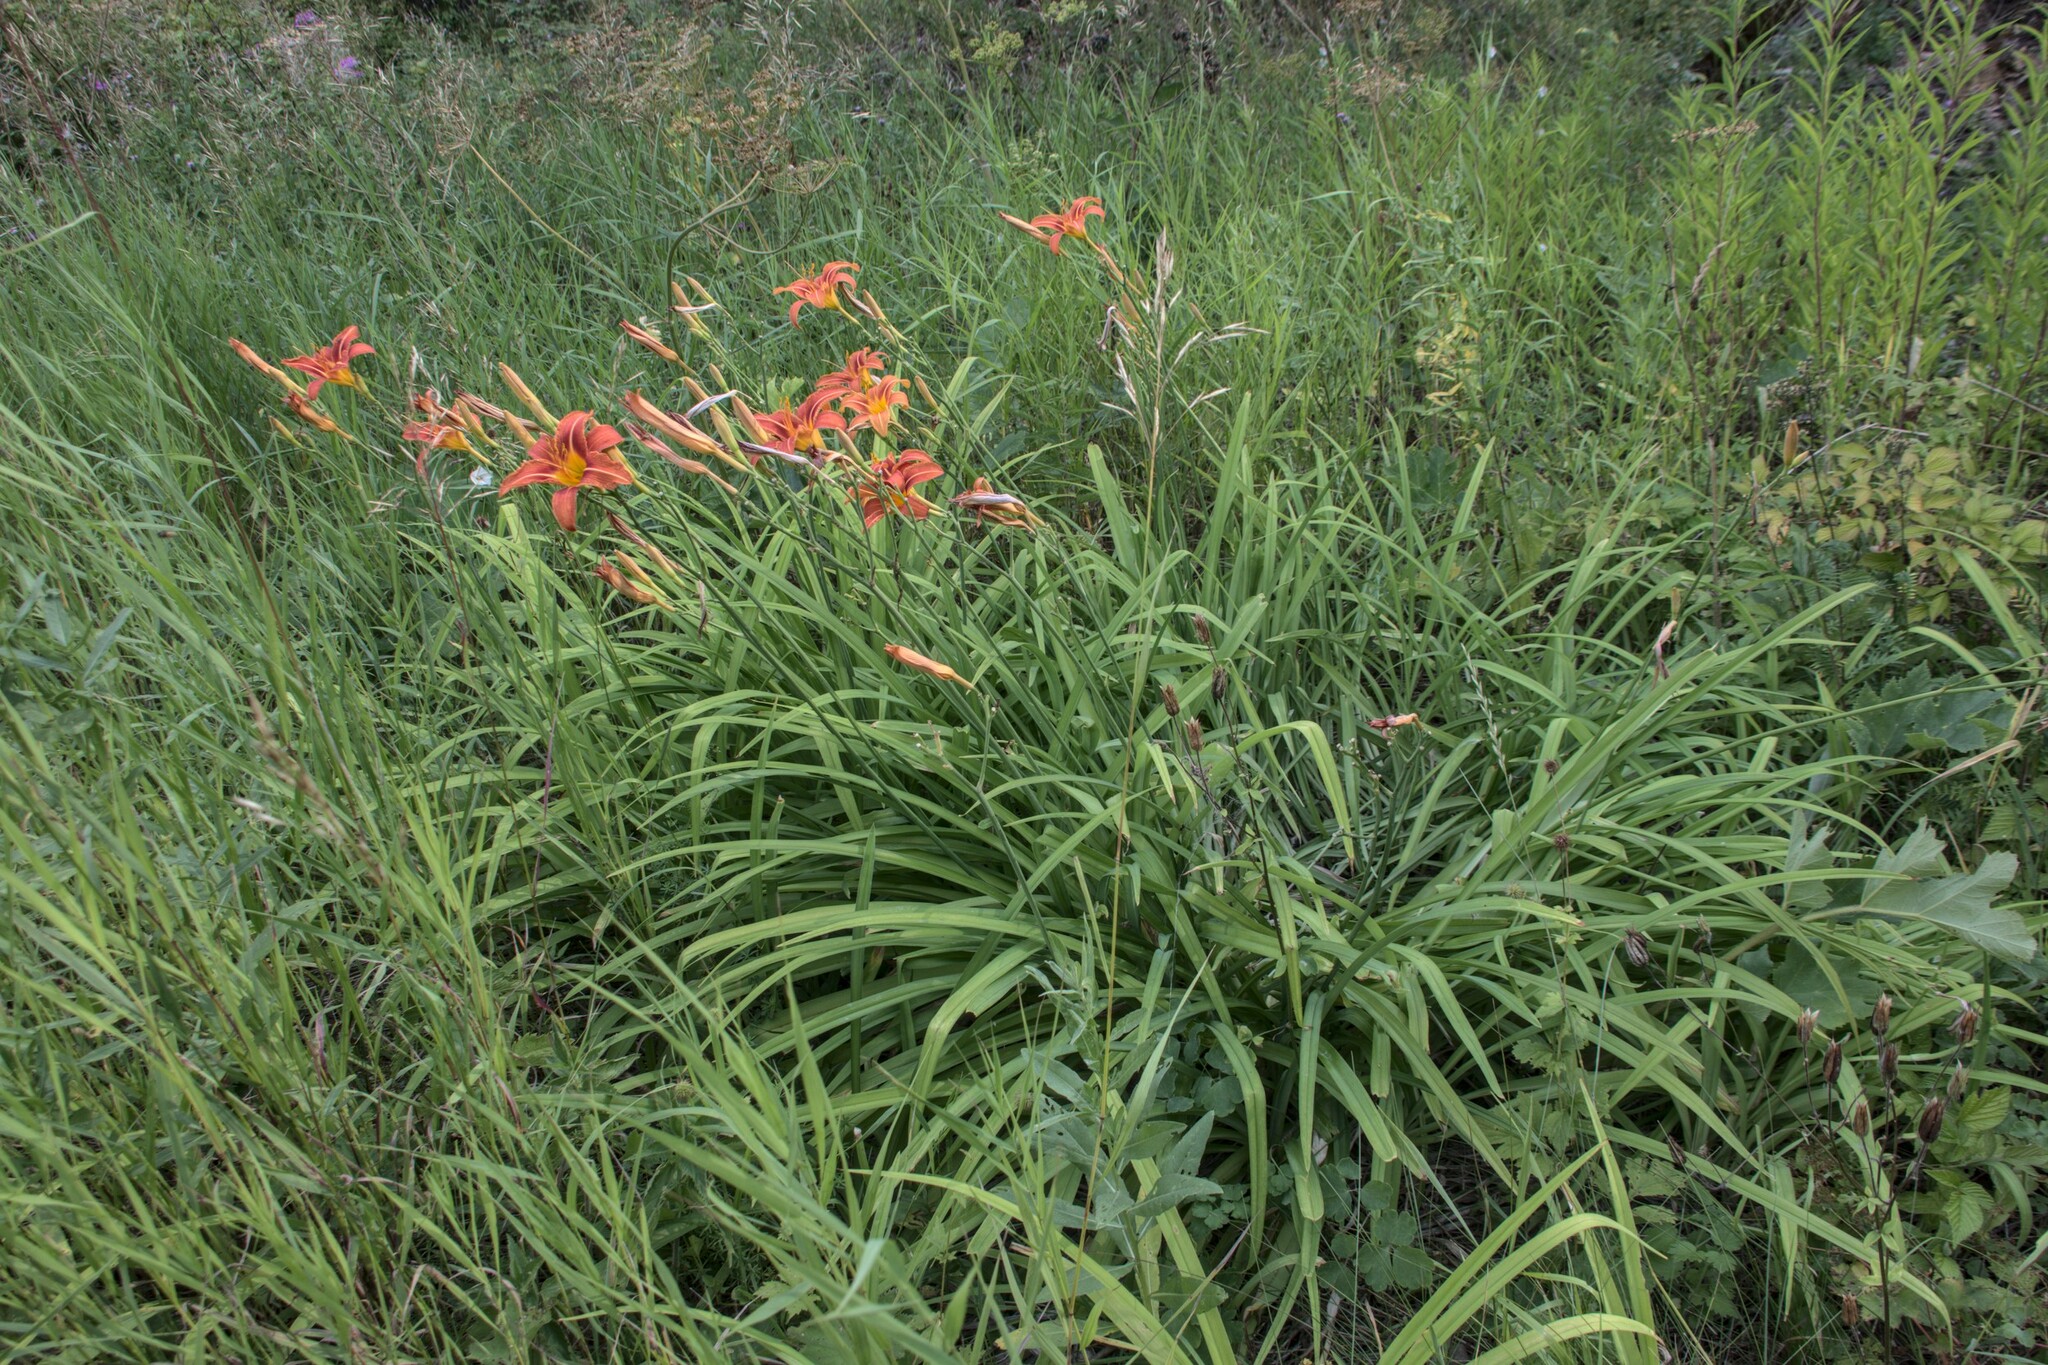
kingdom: Plantae
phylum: Tracheophyta
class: Liliopsida
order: Asparagales
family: Asphodelaceae
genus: Hemerocallis
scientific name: Hemerocallis fulva
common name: Orange day-lily
